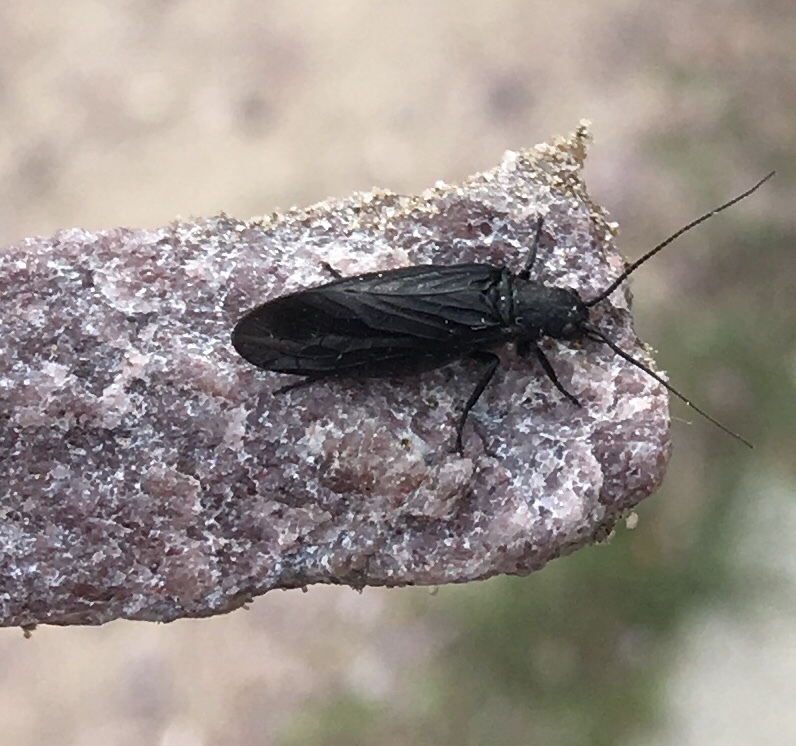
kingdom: Animalia
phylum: Arthropoda
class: Insecta
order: Megaloptera
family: Sialidae
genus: Sialis
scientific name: Sialis
